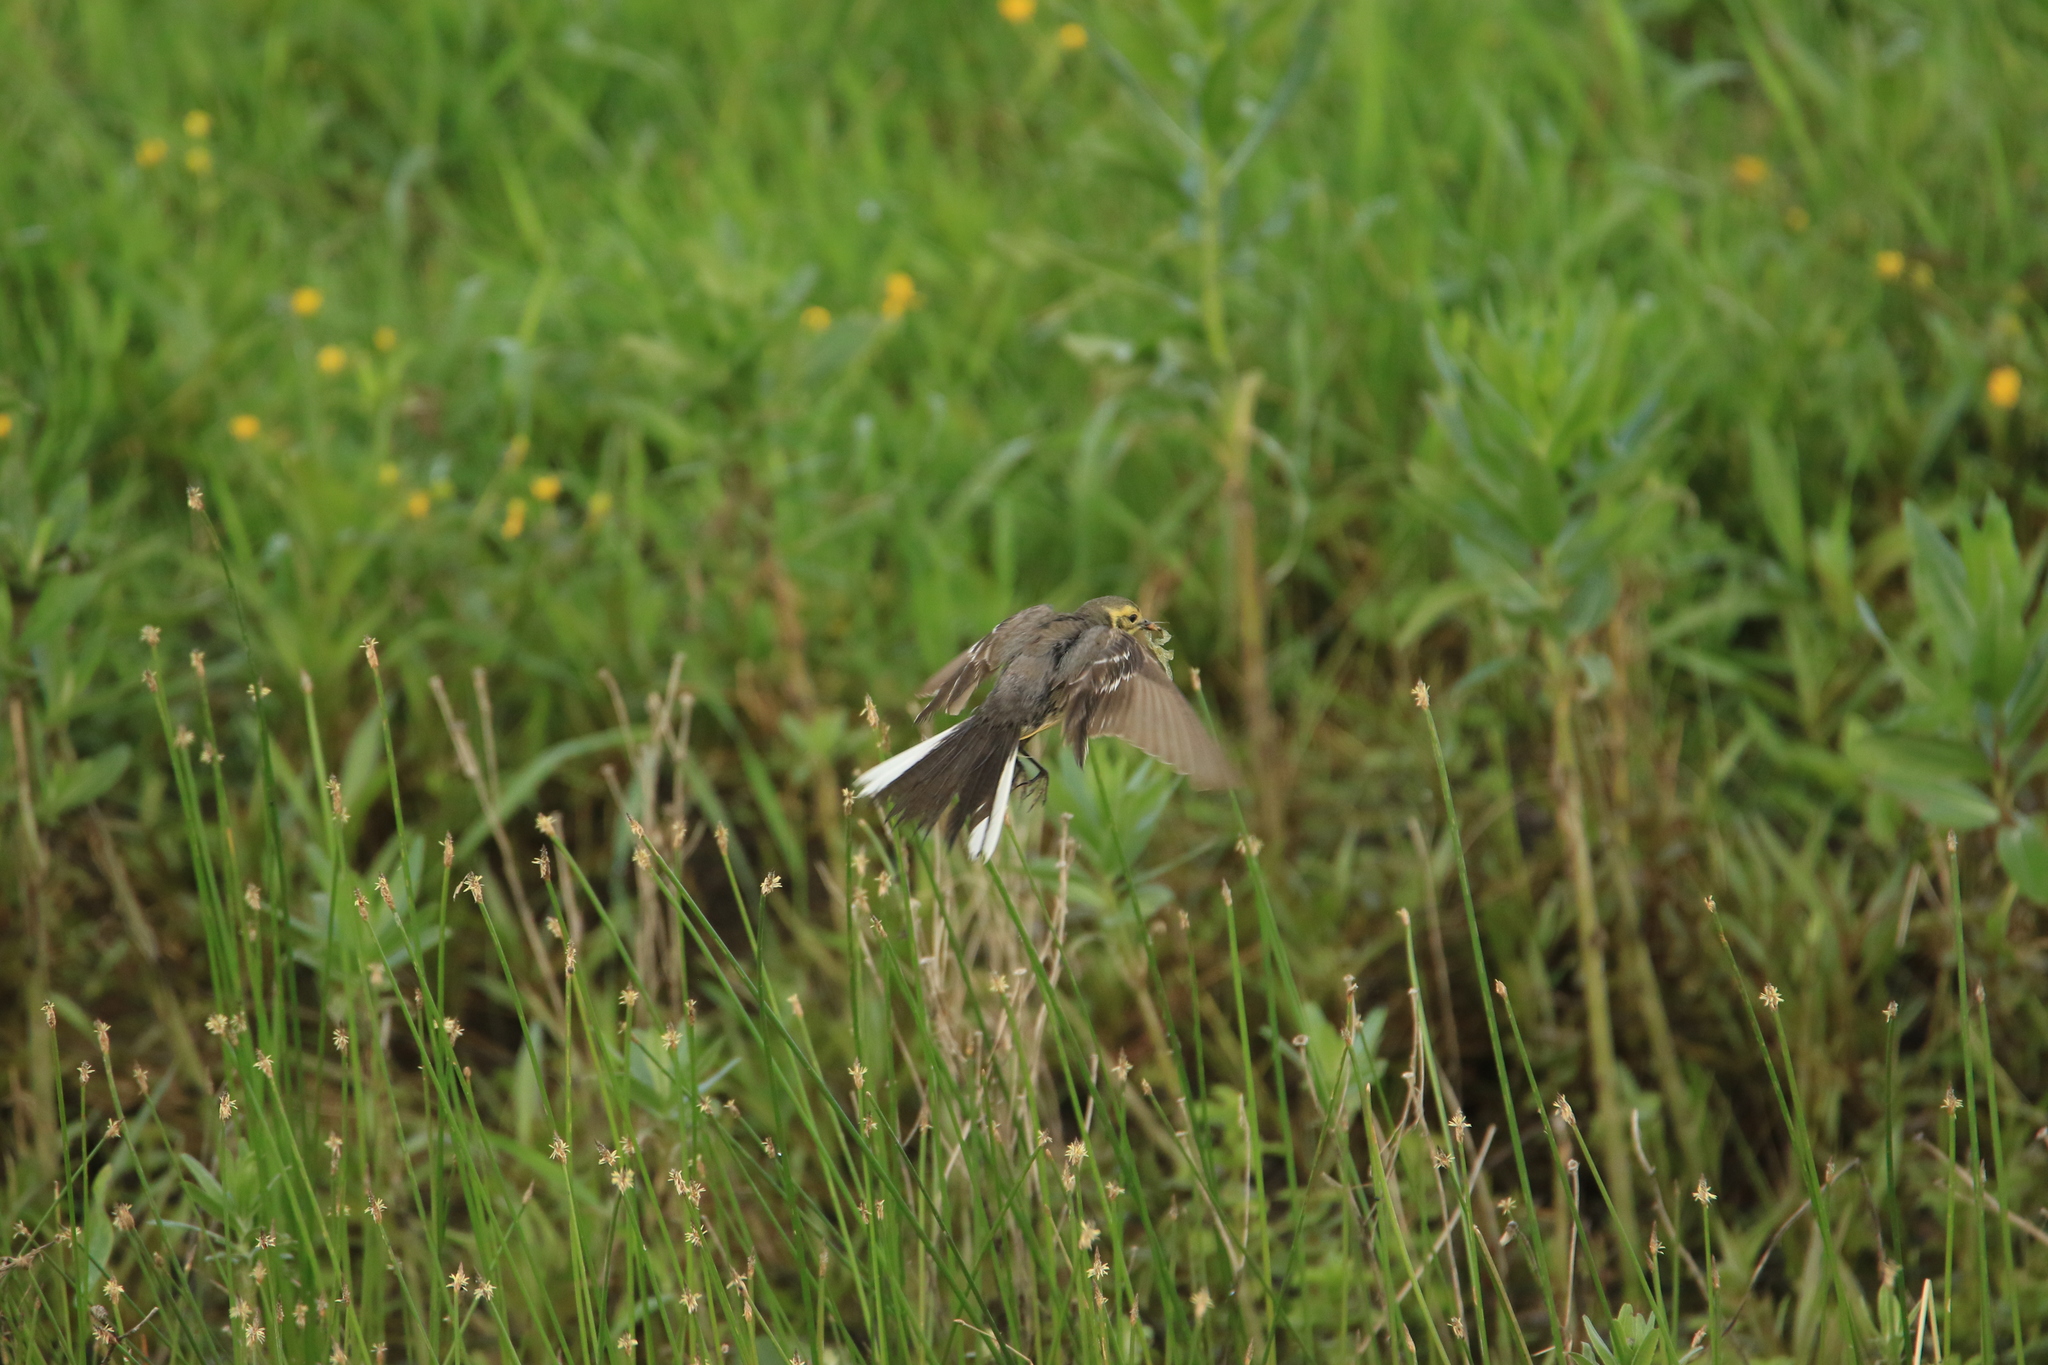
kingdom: Animalia
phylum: Chordata
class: Aves
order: Passeriformes
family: Motacillidae
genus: Motacilla
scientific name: Motacilla citreola
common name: Citrine wagtail
